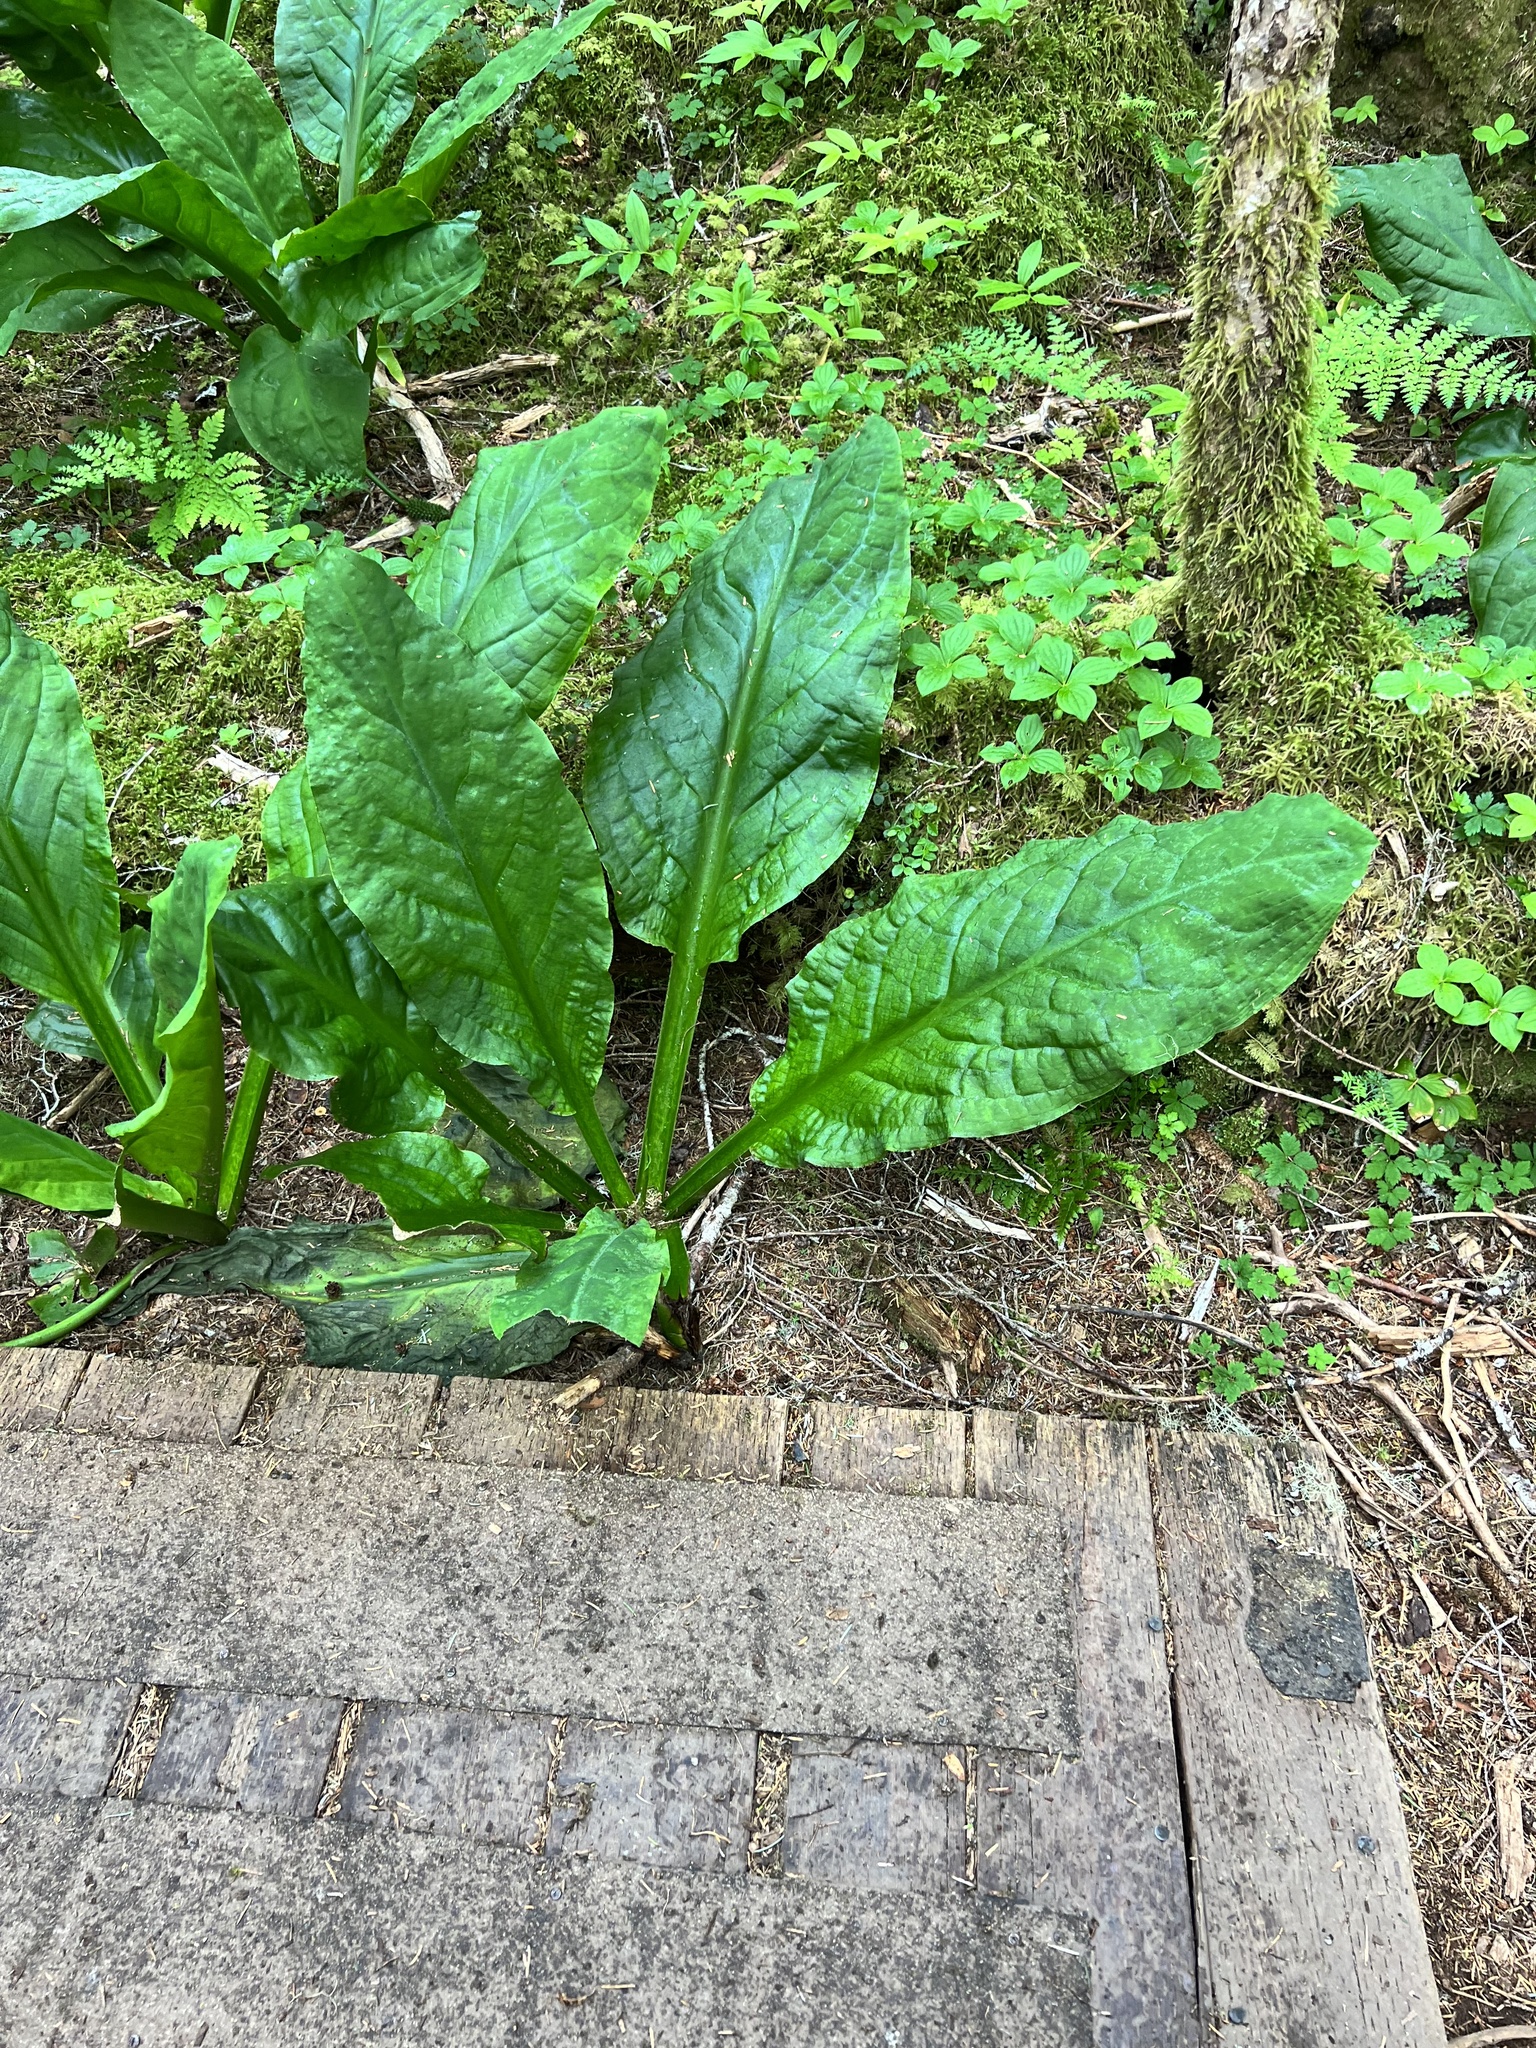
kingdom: Plantae
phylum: Tracheophyta
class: Liliopsida
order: Alismatales
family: Araceae
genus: Lysichiton
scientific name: Lysichiton americanus
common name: American skunk cabbage
